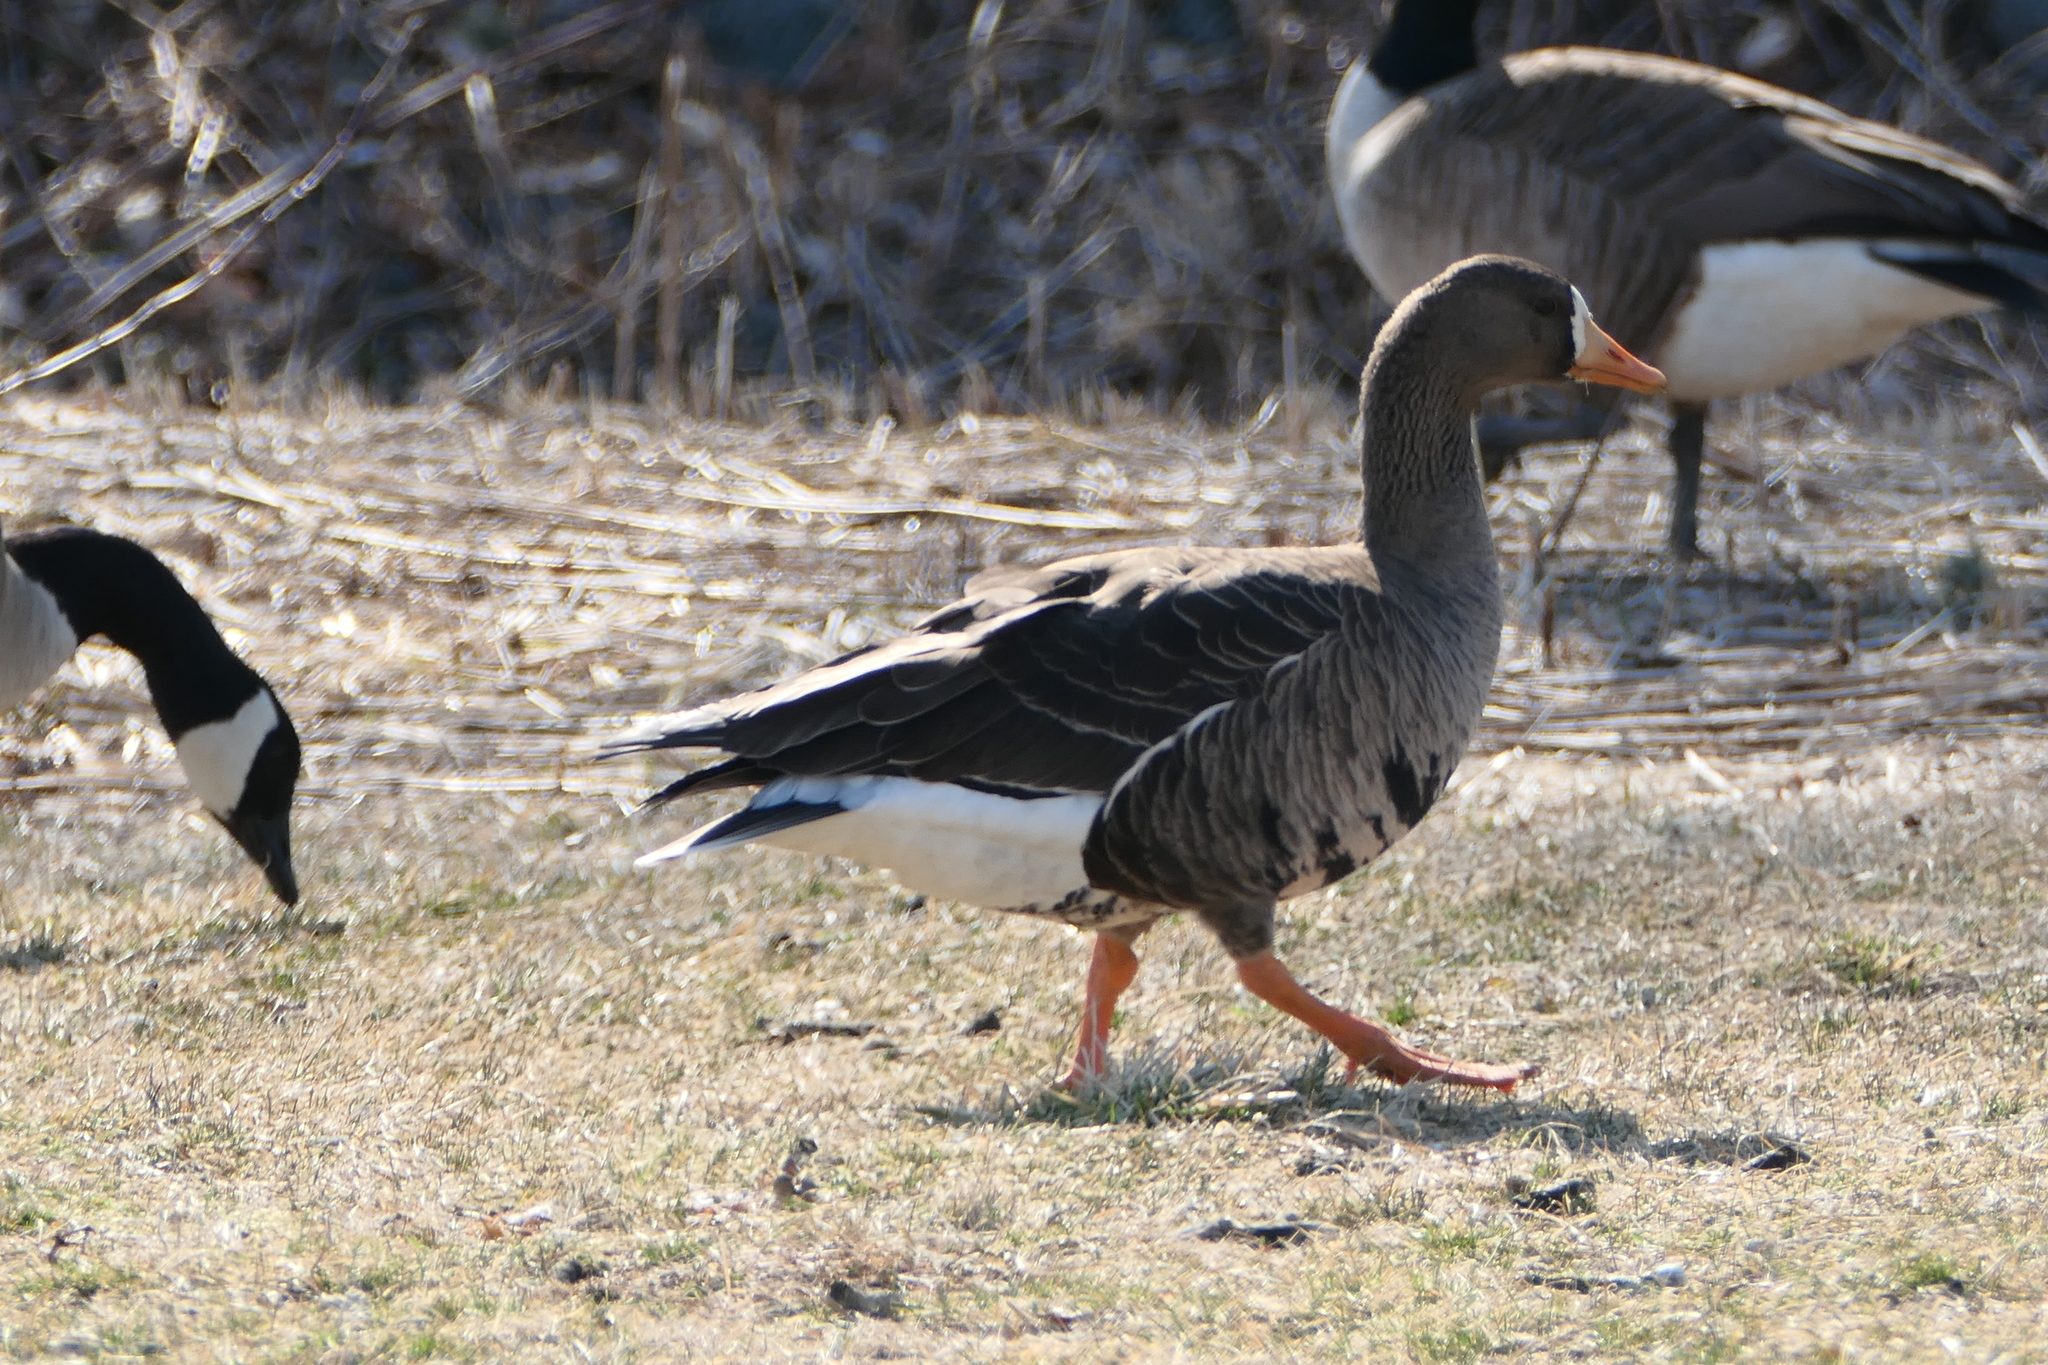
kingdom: Animalia
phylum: Chordata
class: Aves
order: Anseriformes
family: Anatidae
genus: Anser
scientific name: Anser albifrons
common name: Greater white-fronted goose
